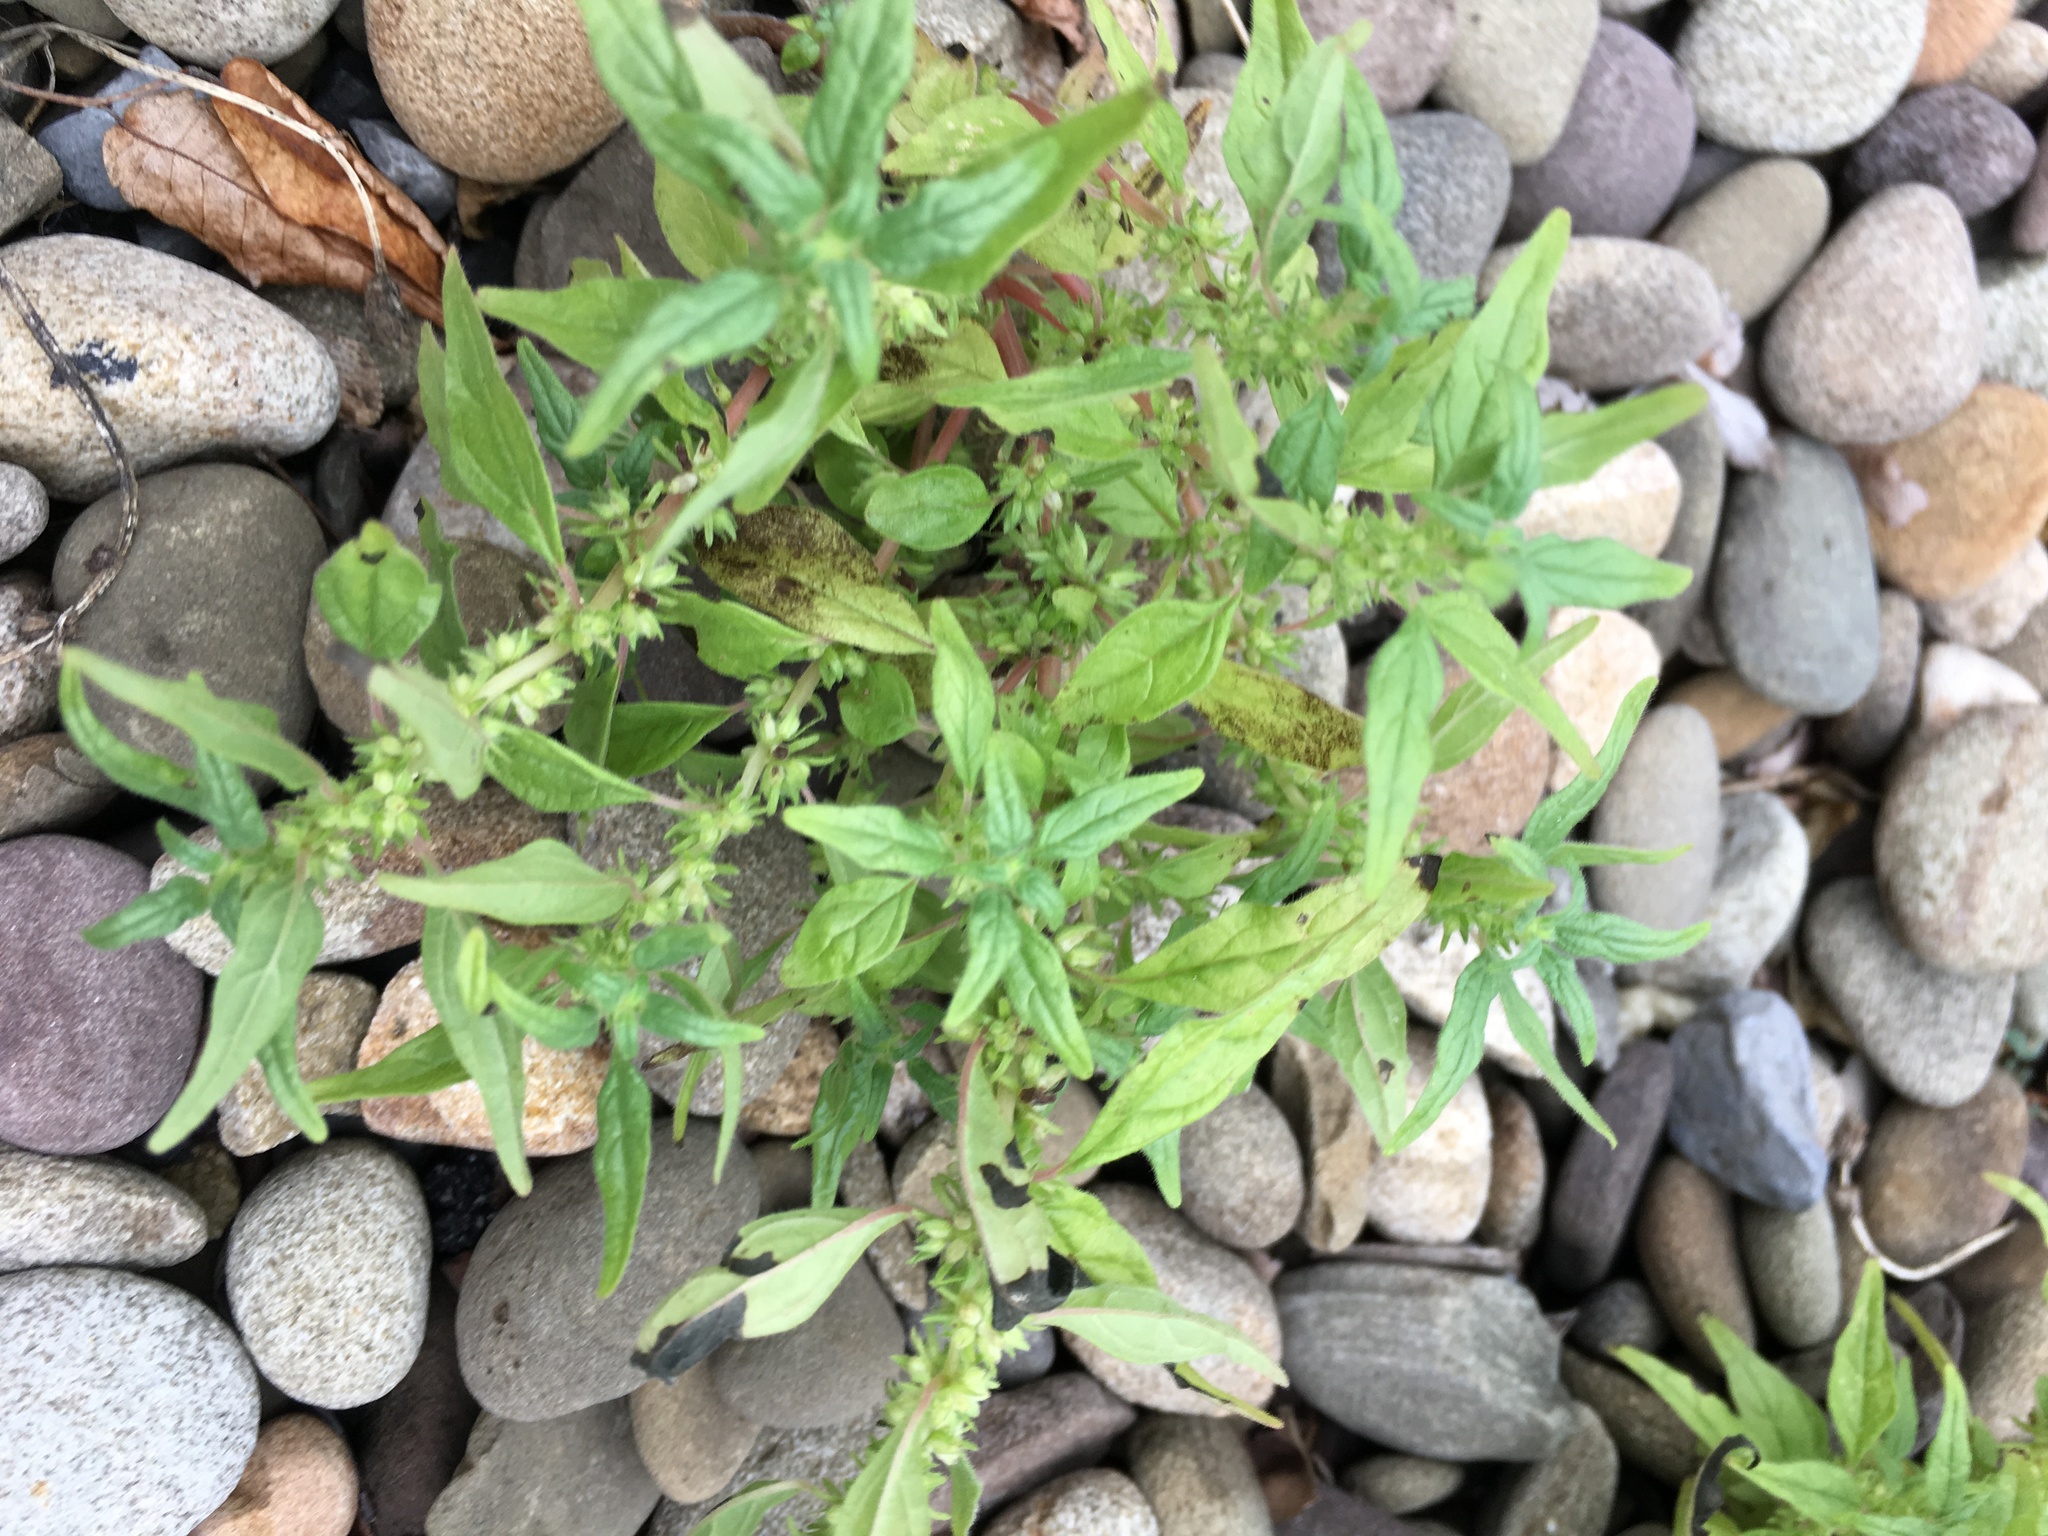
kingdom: Plantae
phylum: Tracheophyta
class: Magnoliopsida
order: Rosales
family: Urticaceae
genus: Parietaria
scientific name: Parietaria pensylvanica
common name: Pennsylvania pellitory
